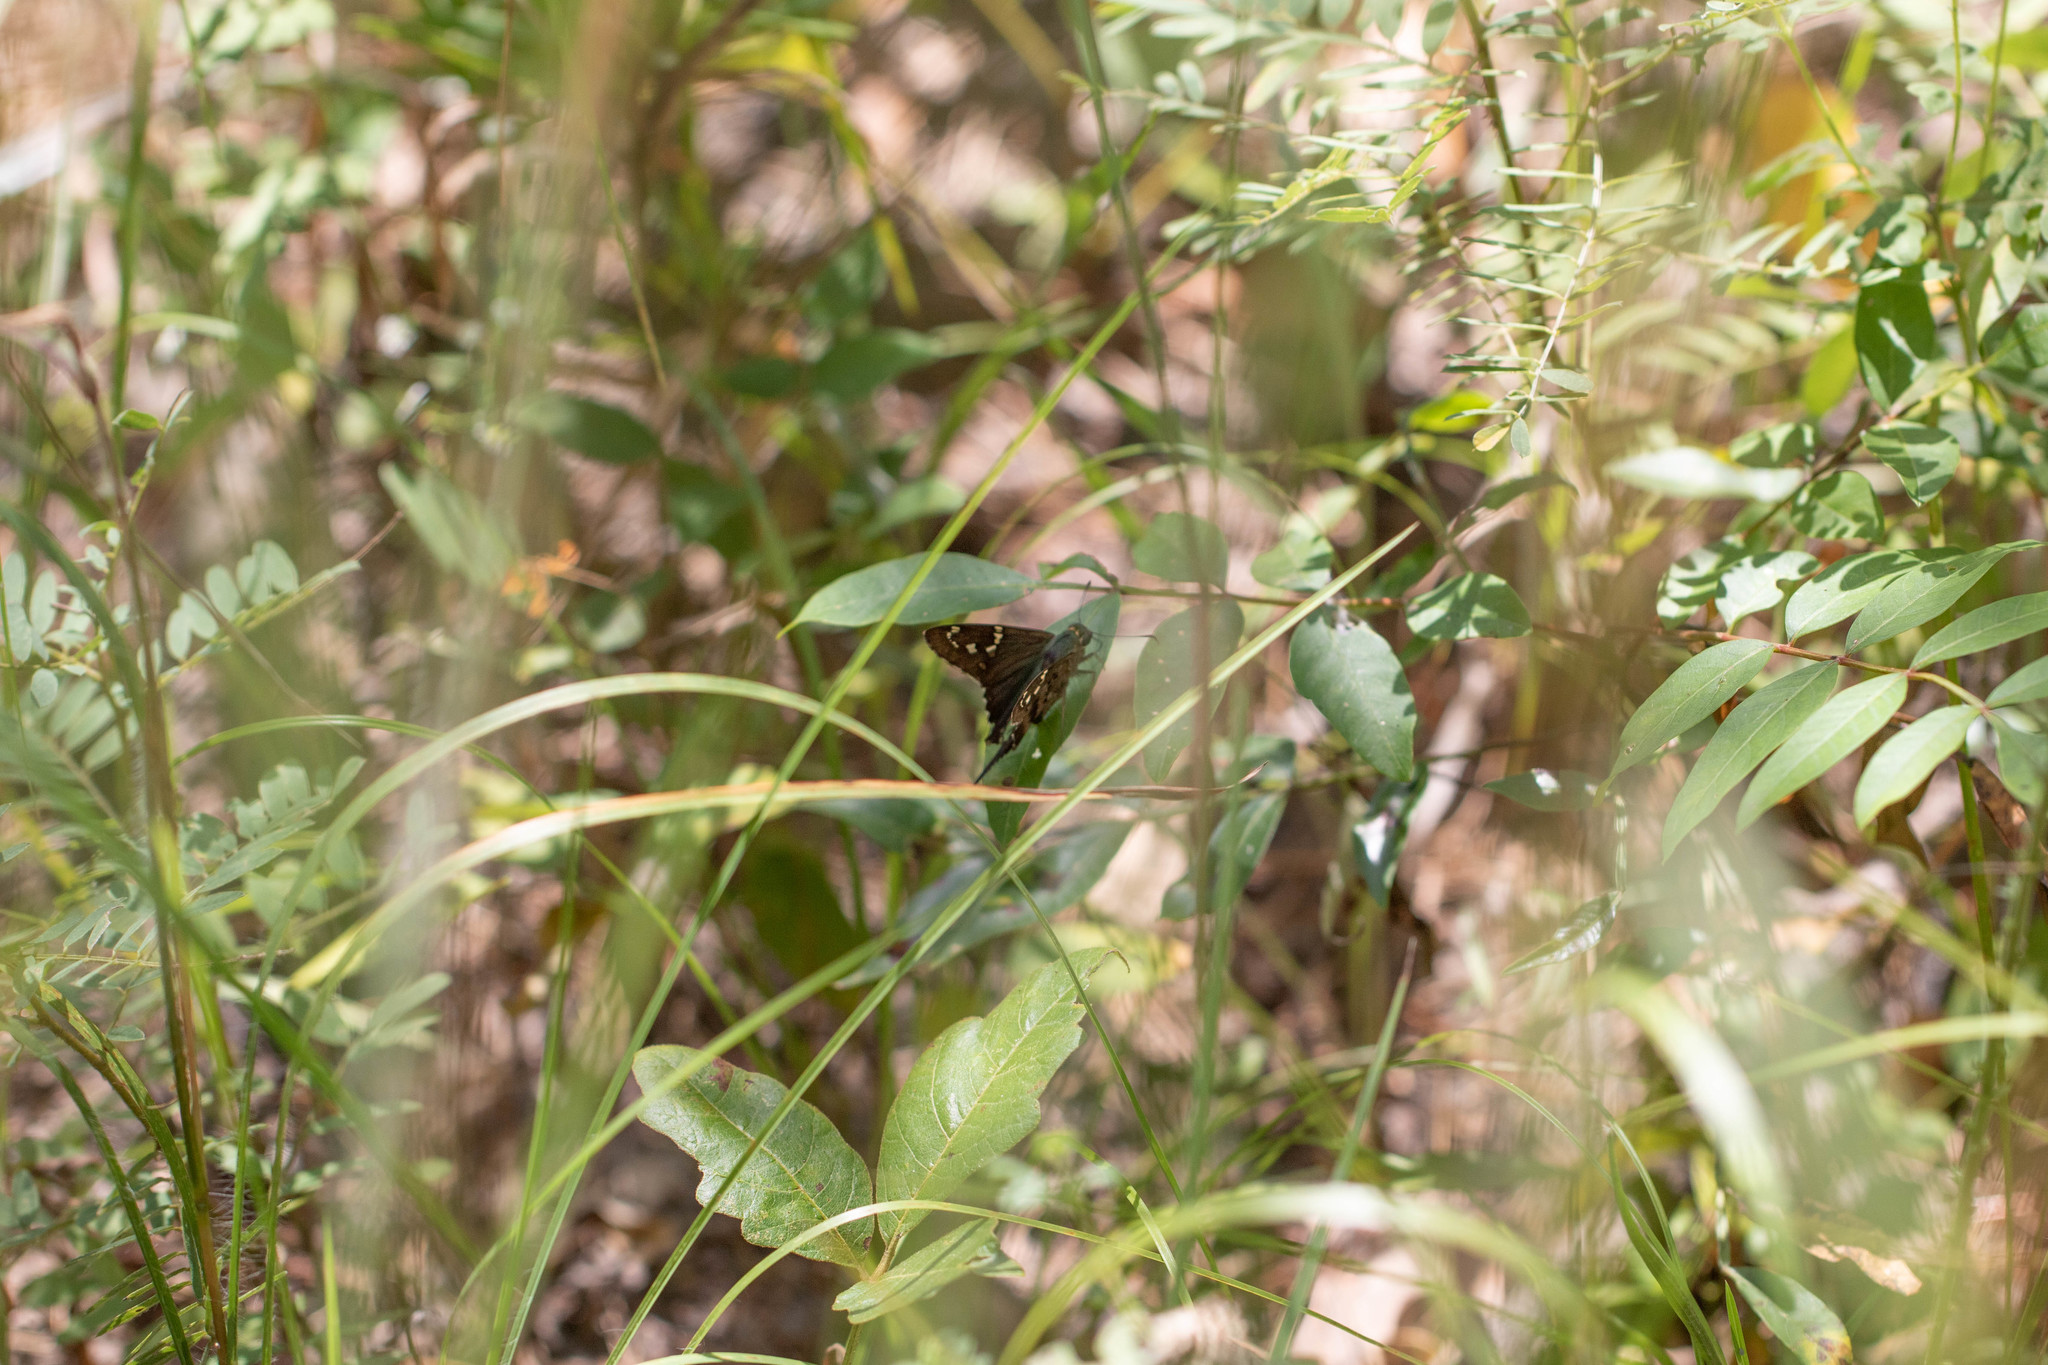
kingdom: Animalia
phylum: Arthropoda
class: Insecta
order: Lepidoptera
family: Hesperiidae
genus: Urbanus
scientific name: Urbanus proteus
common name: Long-tailed skipper
